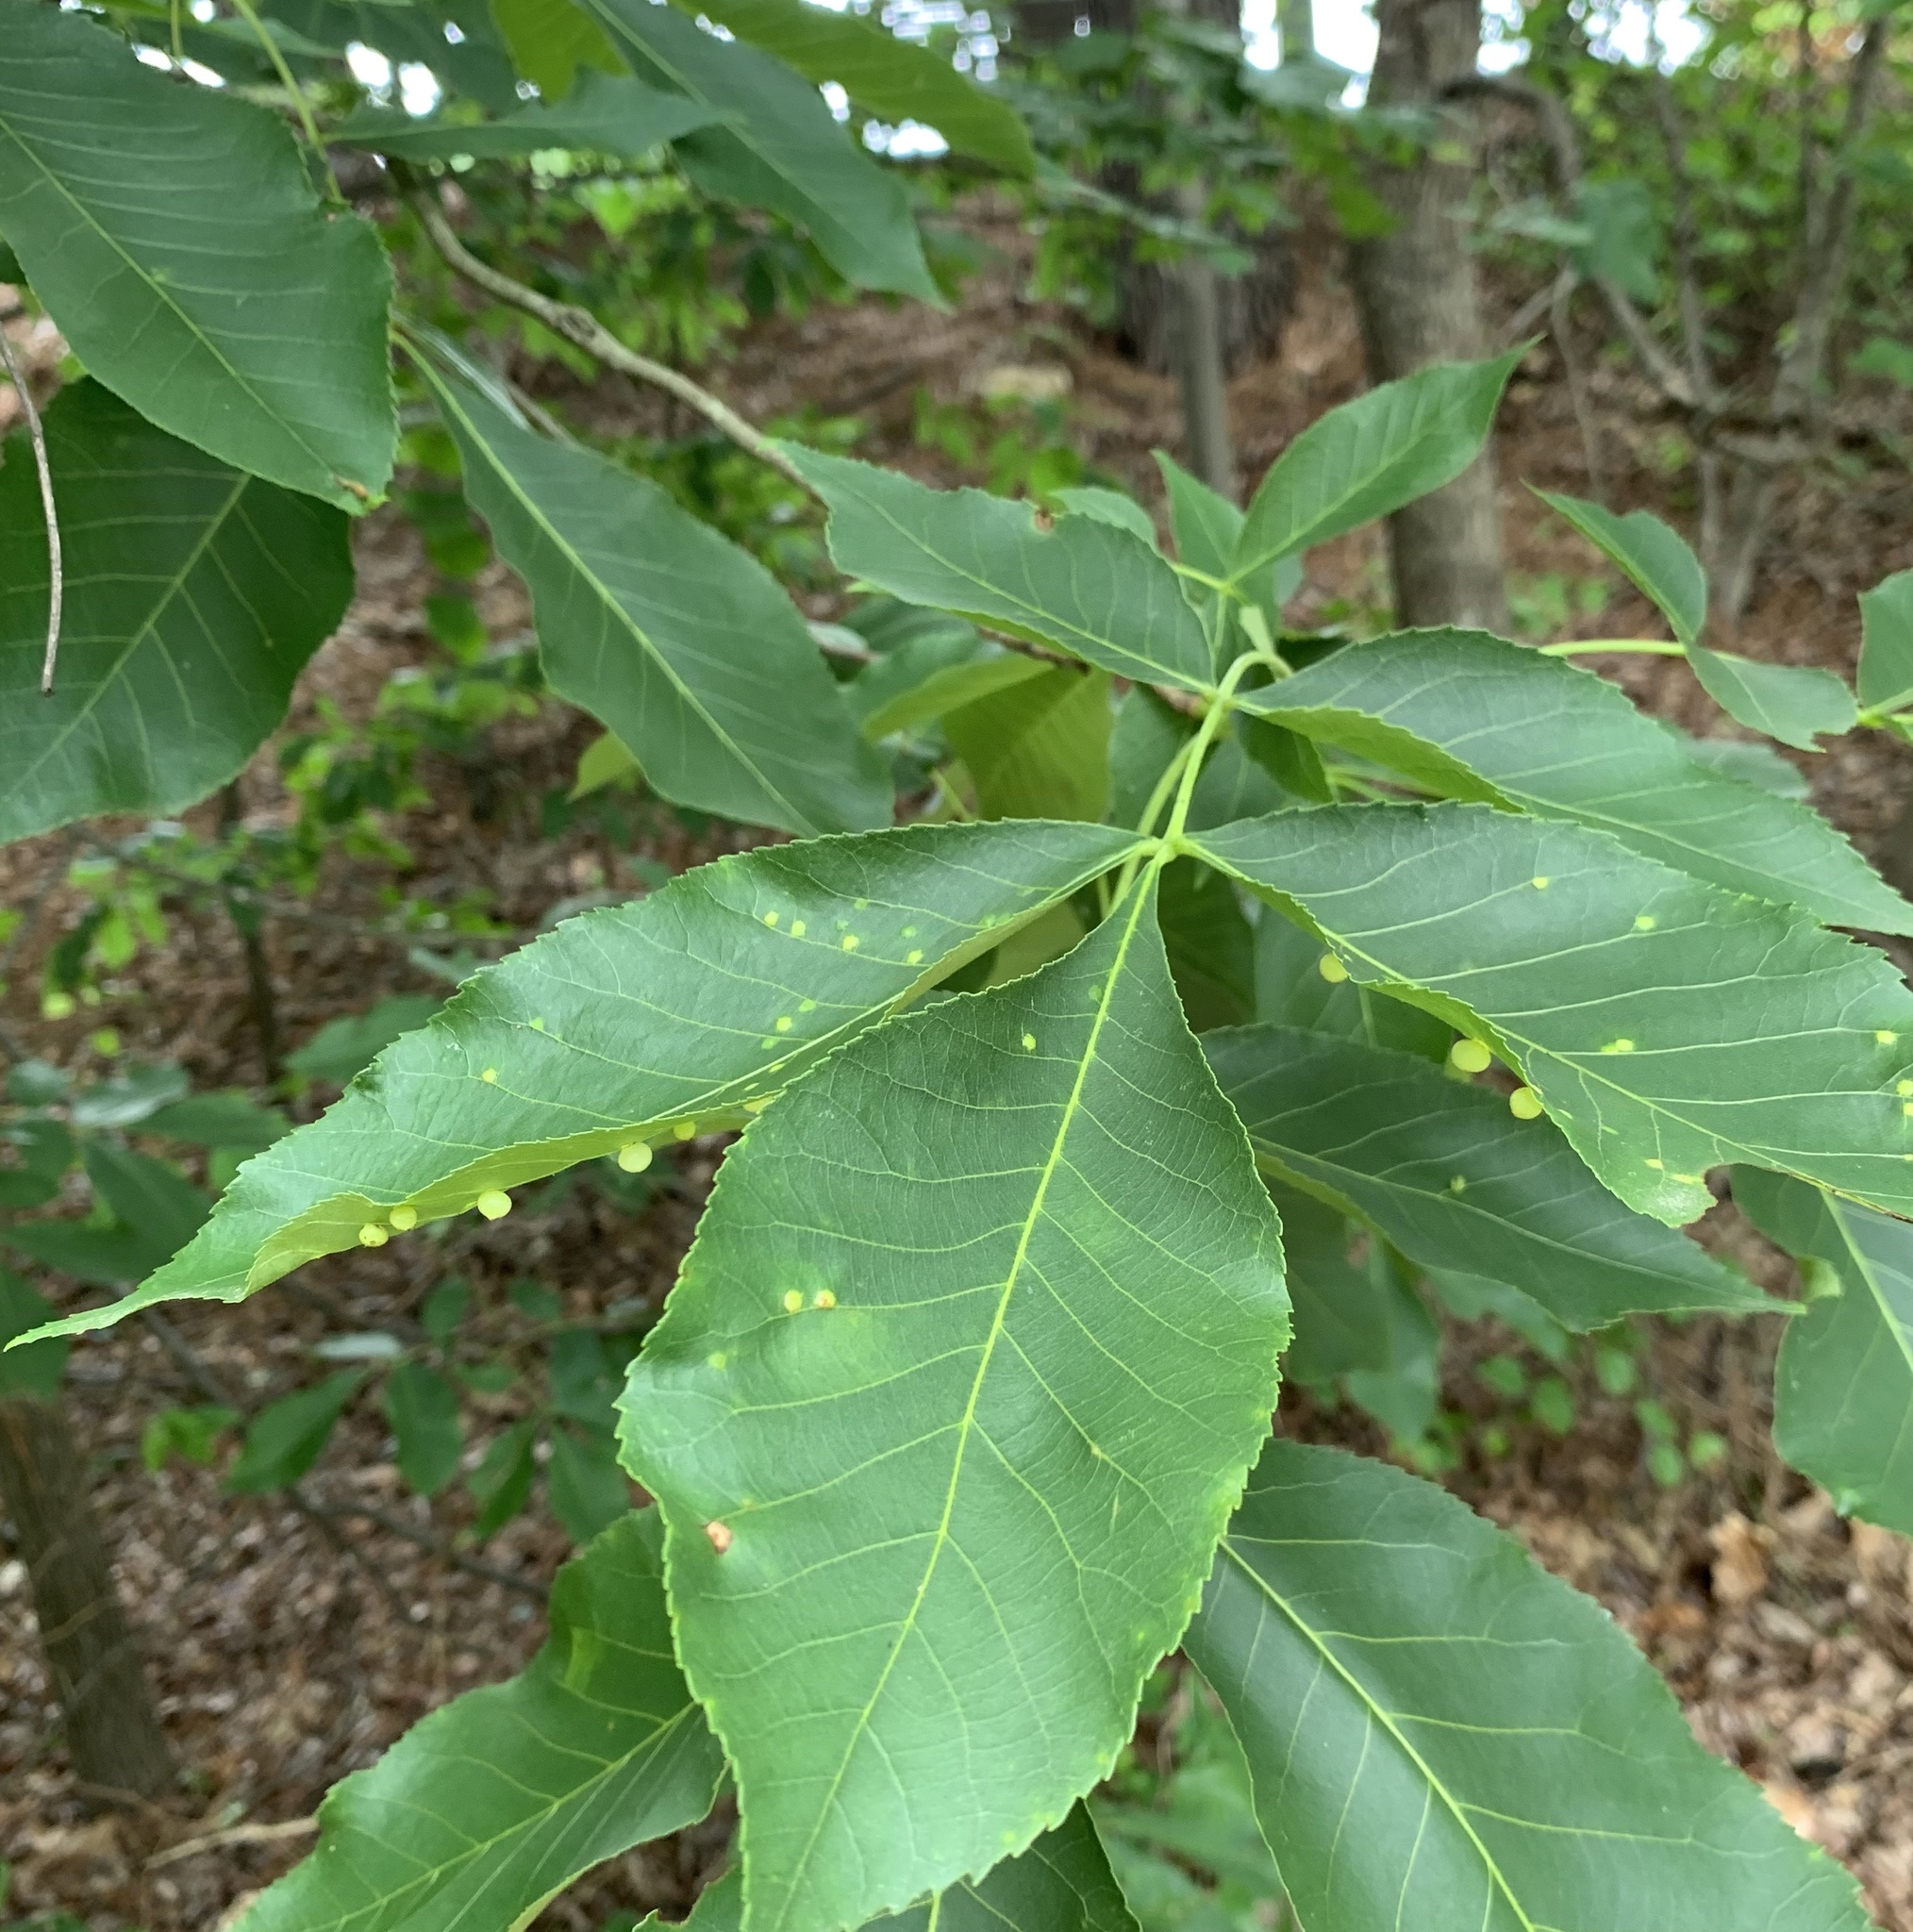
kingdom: Animalia
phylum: Arthropoda
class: Insecta
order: Diptera
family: Cecidomyiidae
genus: Caryomyia
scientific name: Caryomyia caryae
